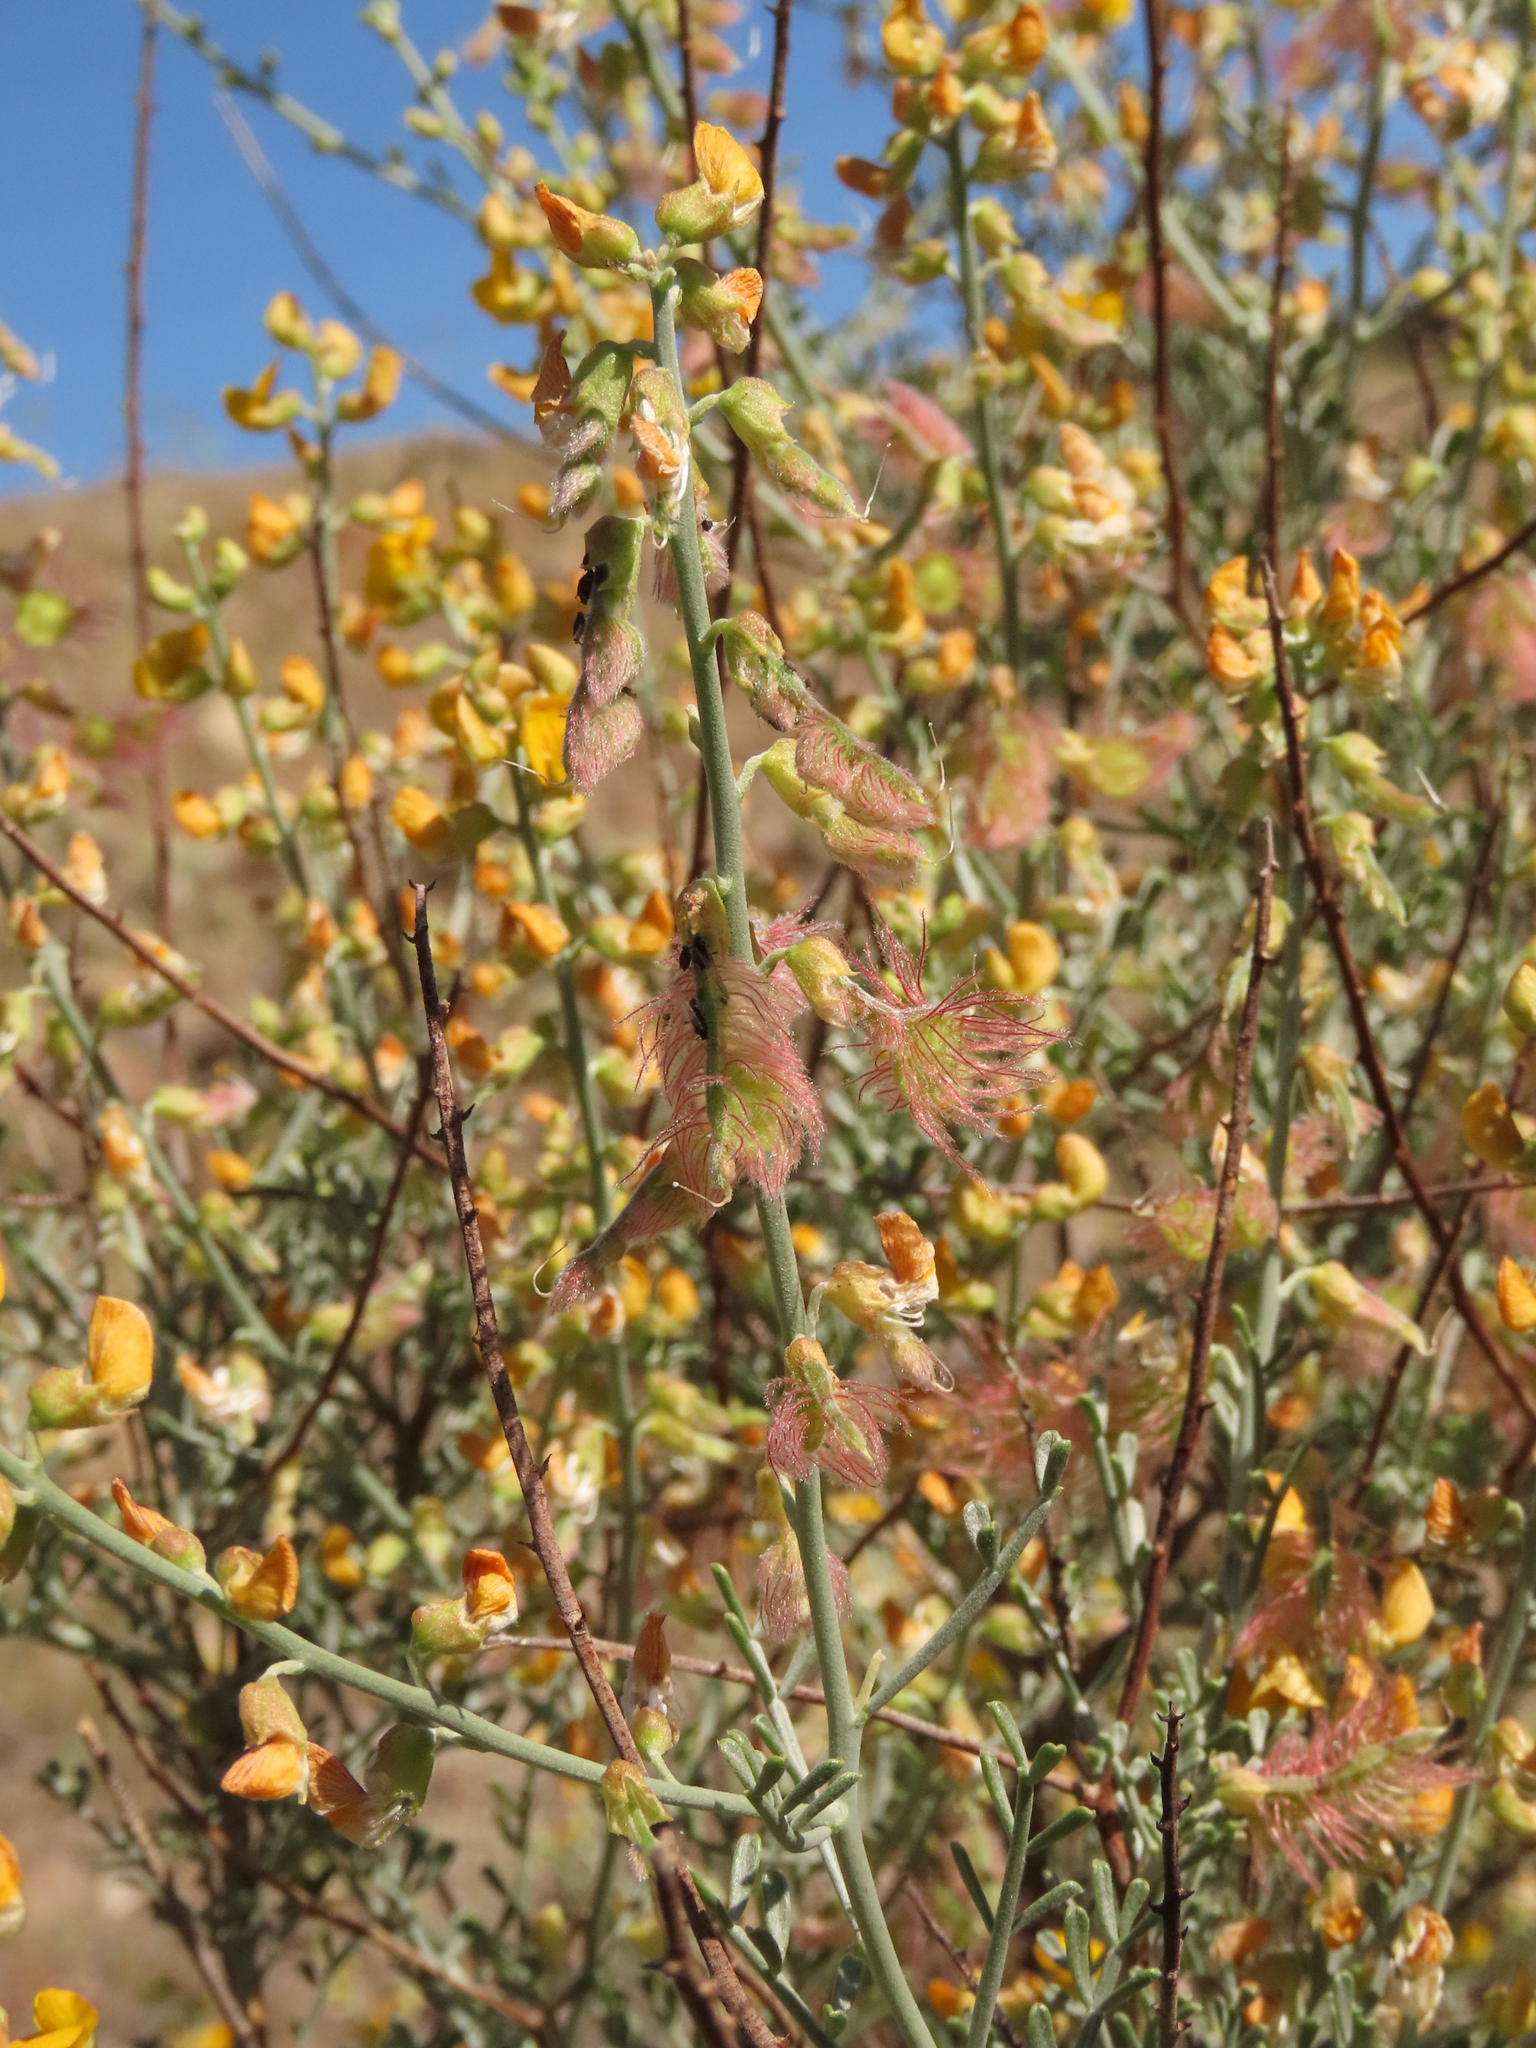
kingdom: Plantae
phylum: Tracheophyta
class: Magnoliopsida
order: Fabales
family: Fabaceae
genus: Adesmia
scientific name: Adesmia argentea
